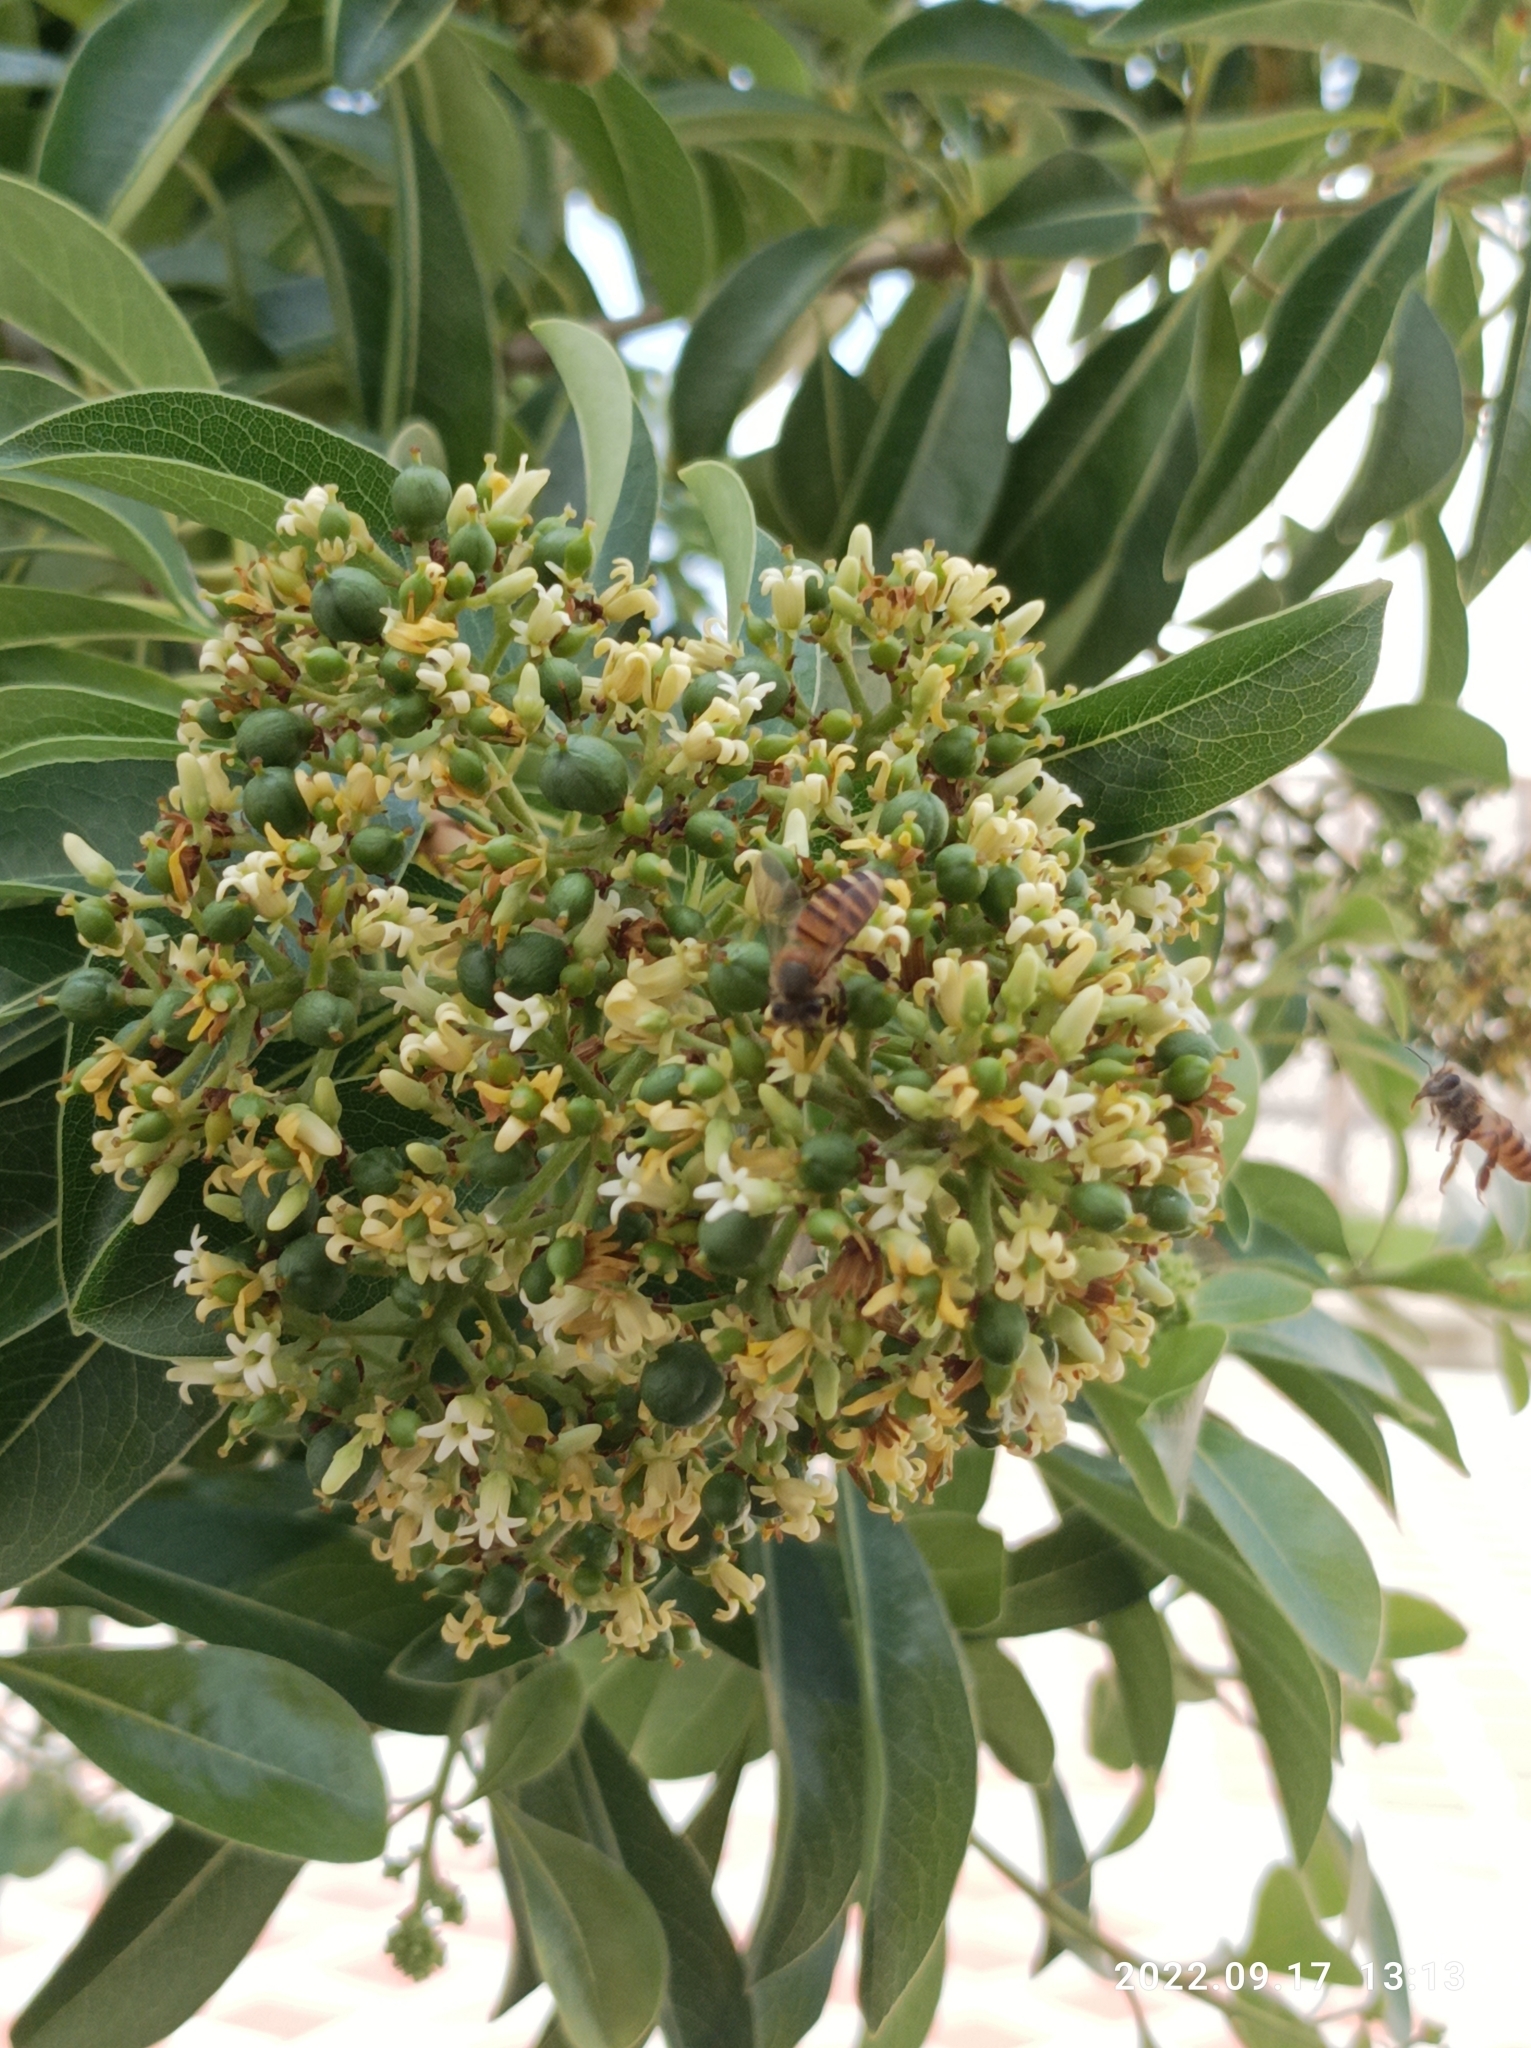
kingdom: Animalia
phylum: Arthropoda
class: Insecta
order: Hymenoptera
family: Apidae
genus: Apis
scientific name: Apis cerana
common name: Honey bee
